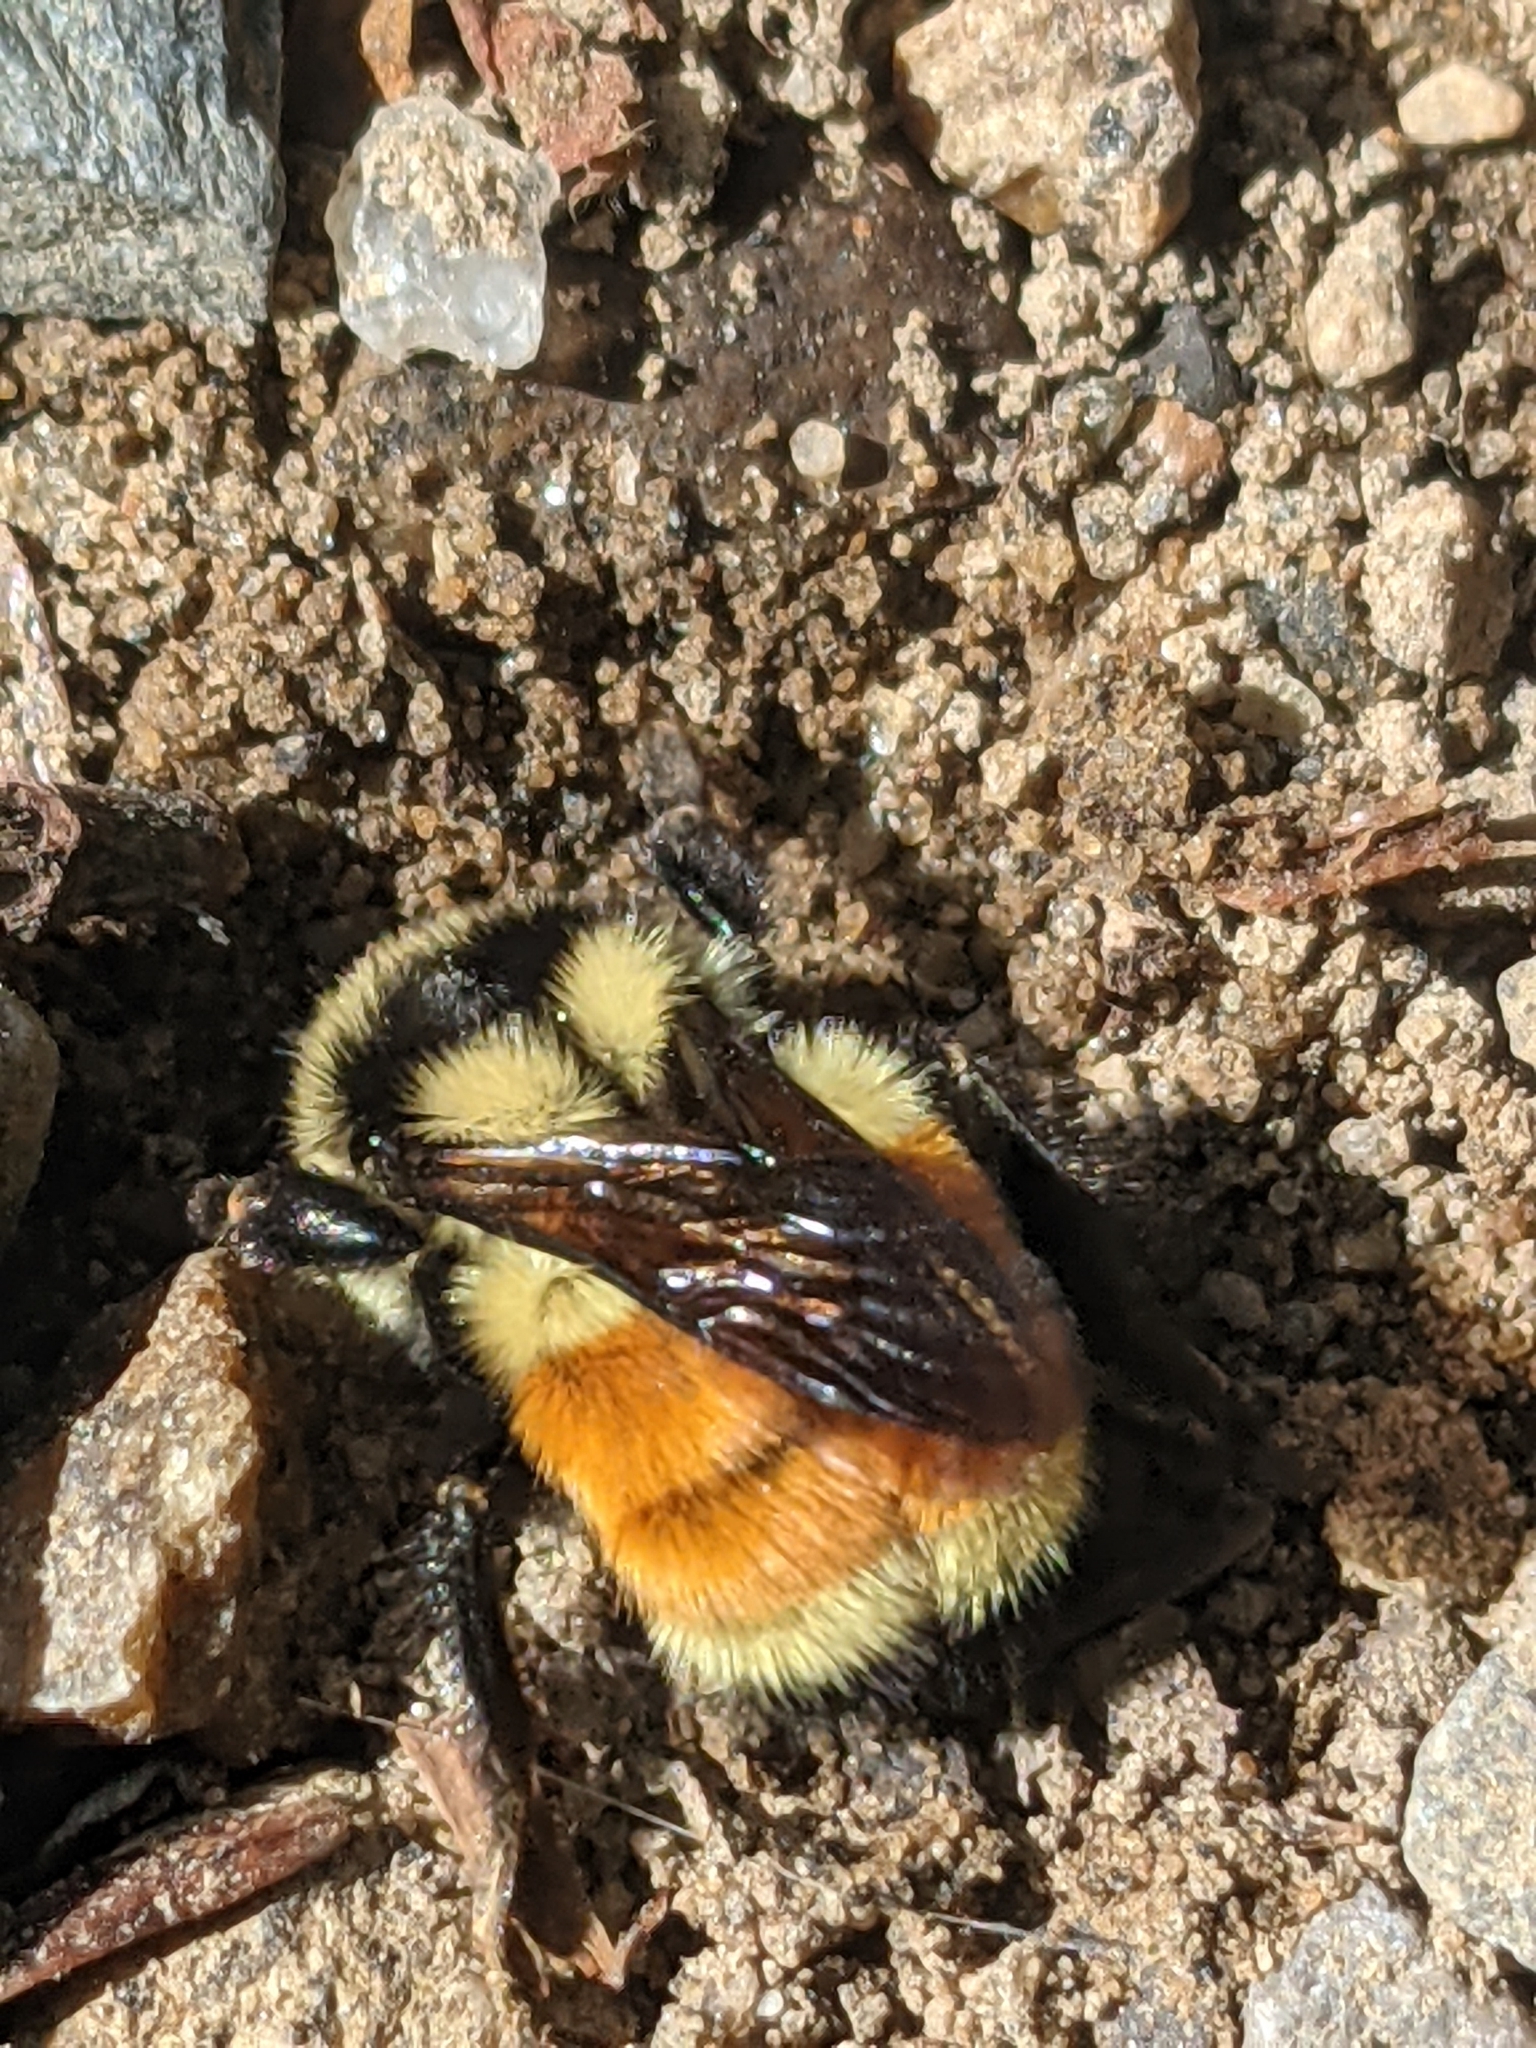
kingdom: Animalia
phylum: Arthropoda
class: Insecta
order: Hymenoptera
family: Apidae
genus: Bombus
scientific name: Bombus ternarius
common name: Tri-colored bumble bee
